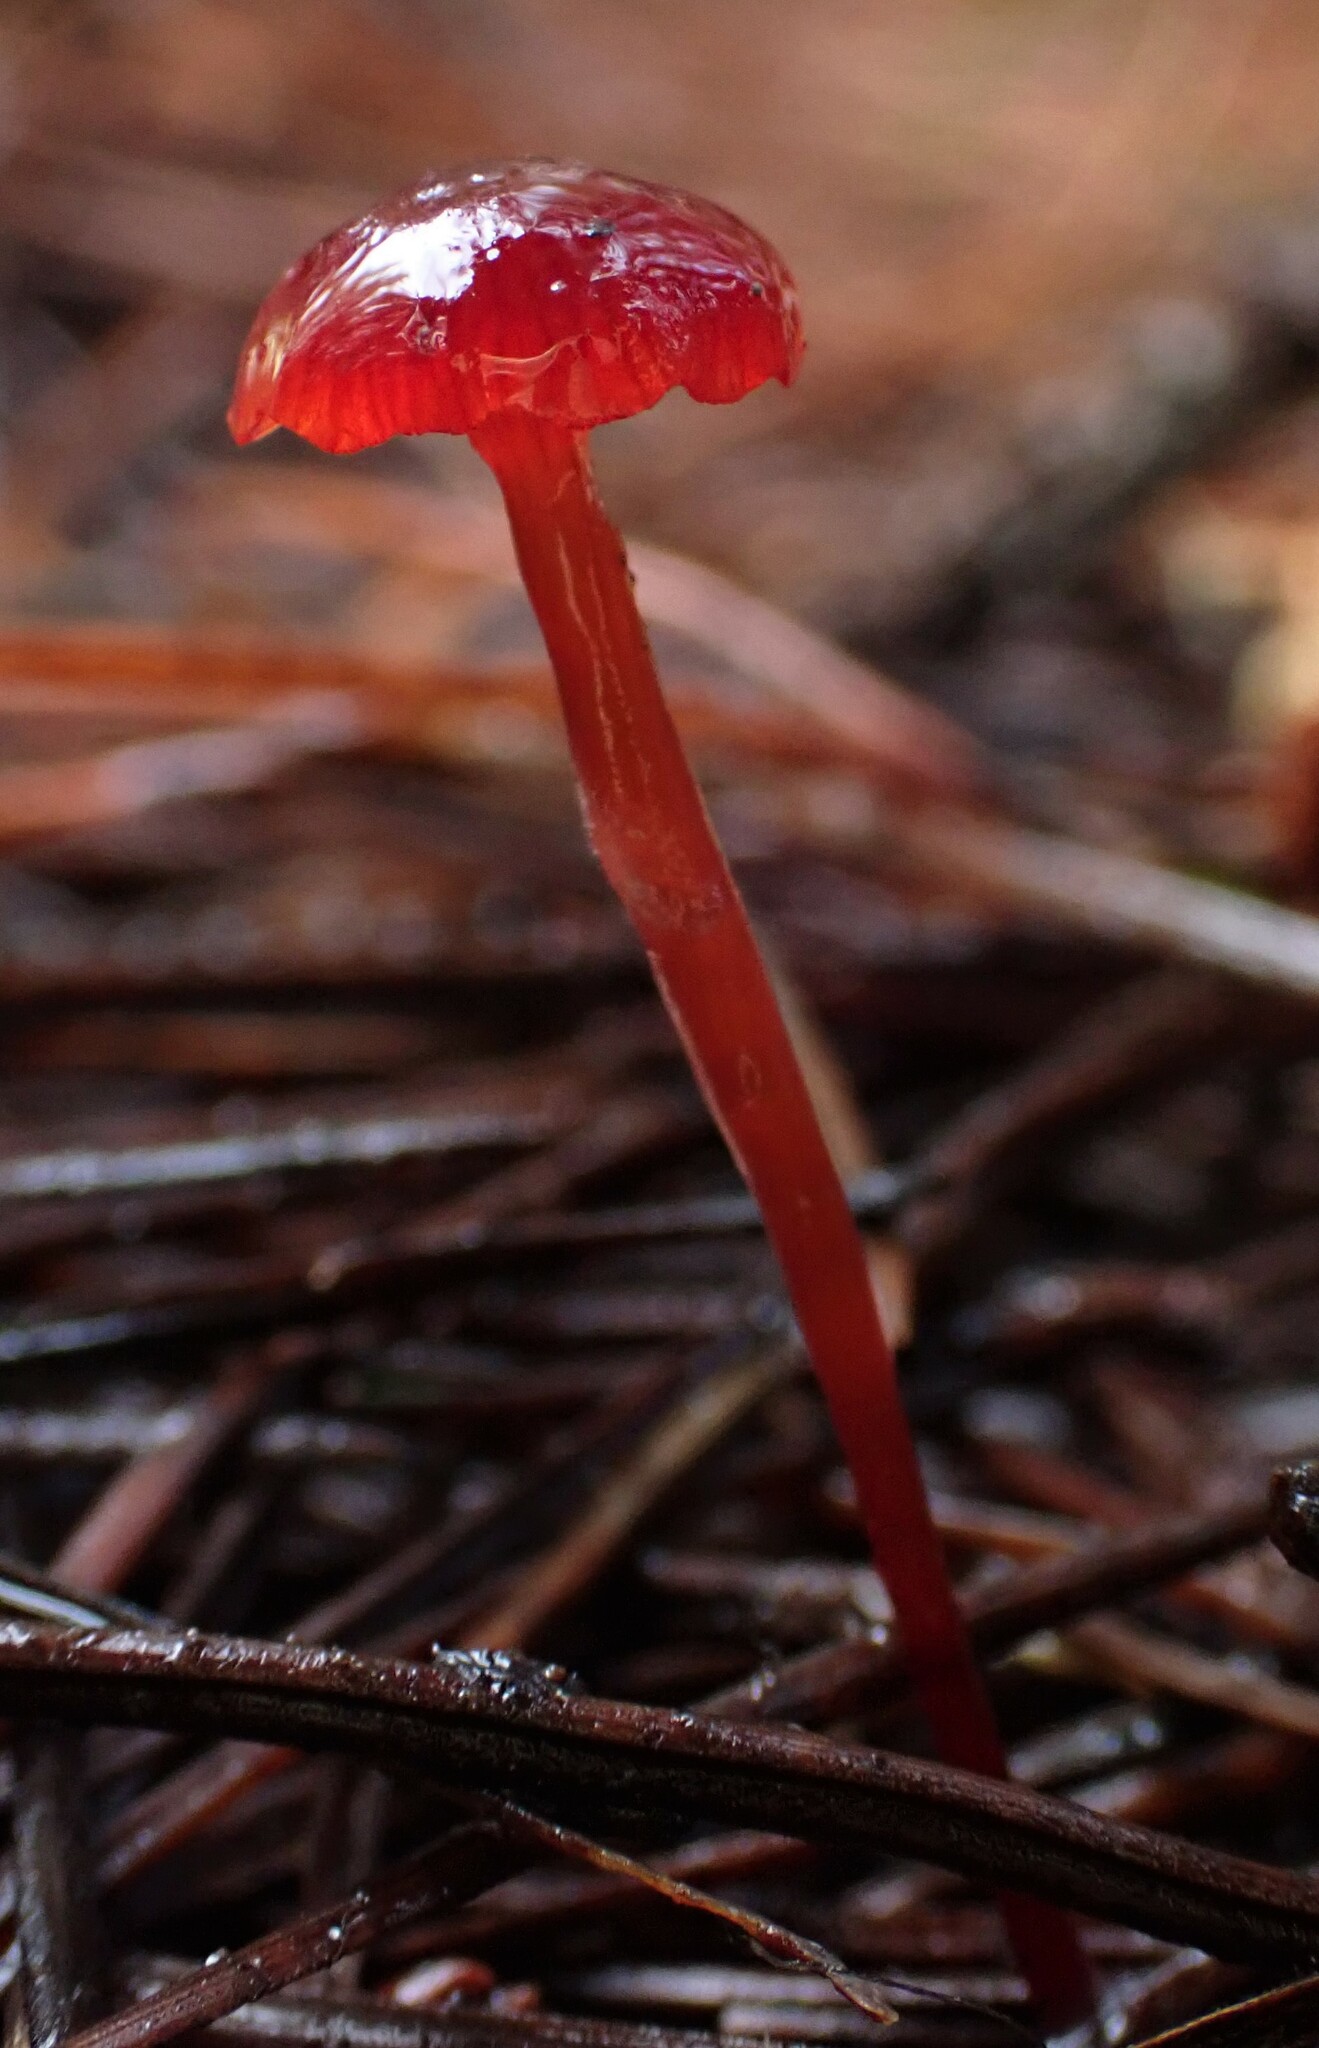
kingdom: Fungi
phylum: Basidiomycota
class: Agaricomycetes
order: Agaricales
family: Mycenaceae
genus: Cruentomycena
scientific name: Cruentomycena viscidocruenta
